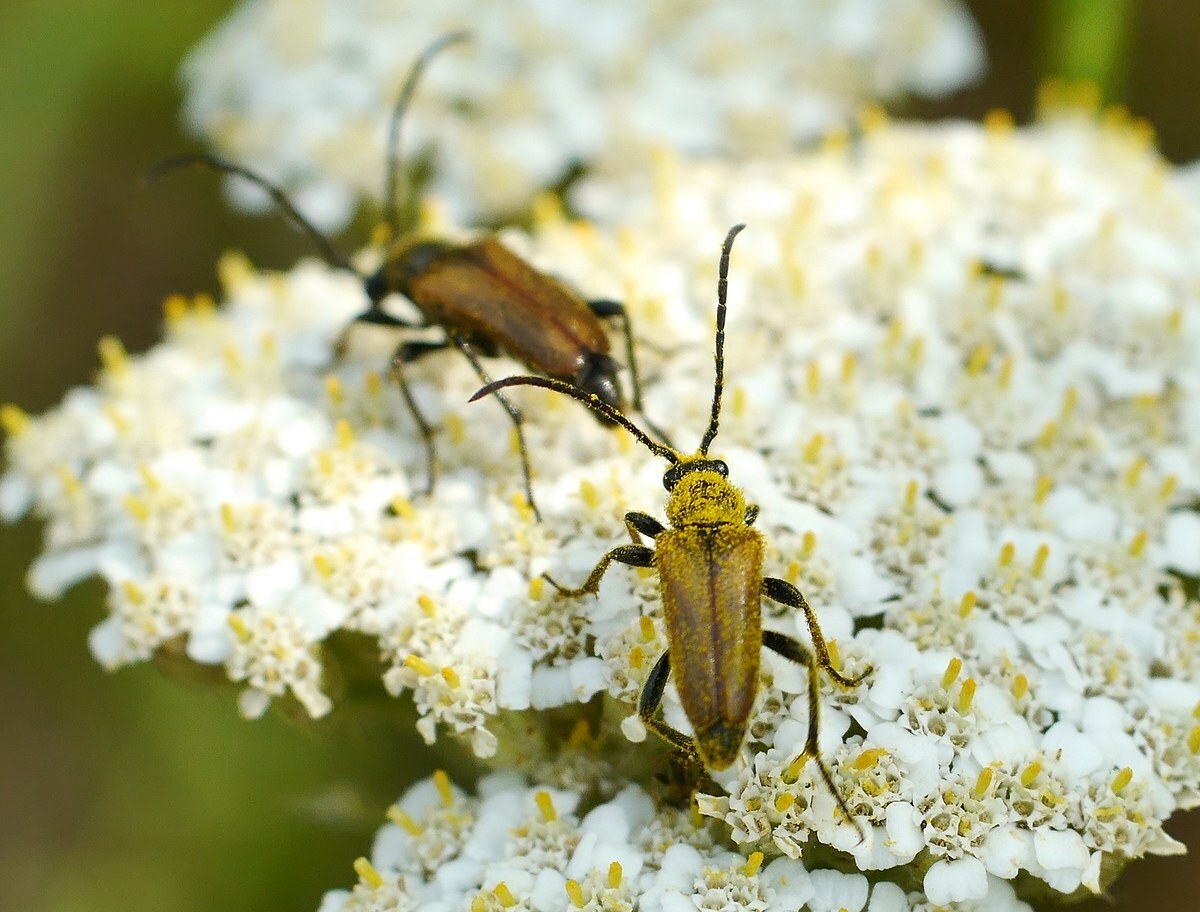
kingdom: Animalia
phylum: Arthropoda
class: Insecta
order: Coleoptera
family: Cerambycidae
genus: Pseudovadonia
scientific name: Pseudovadonia livida
